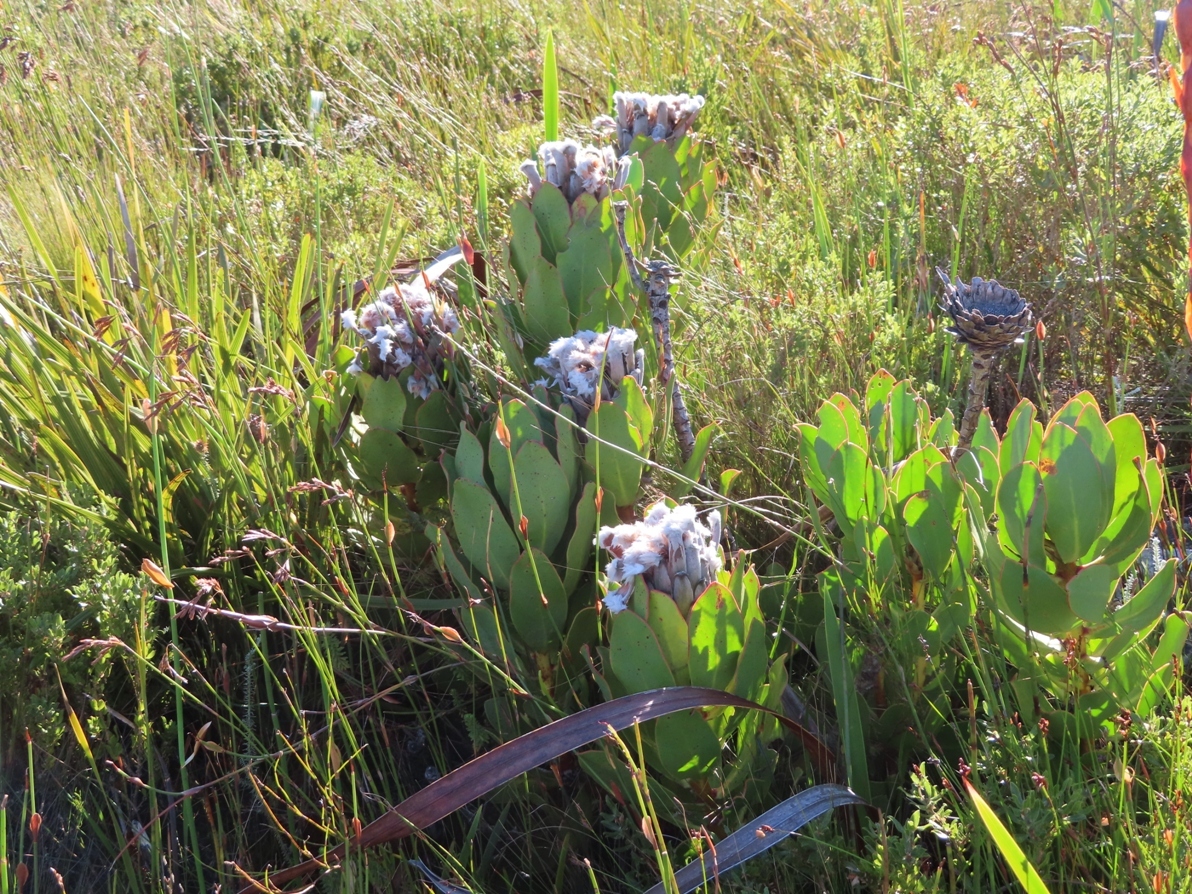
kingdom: Plantae
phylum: Tracheophyta
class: Magnoliopsida
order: Proteales
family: Proteaceae
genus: Protea
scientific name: Protea speciosa
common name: Brown-beard sugarbush
